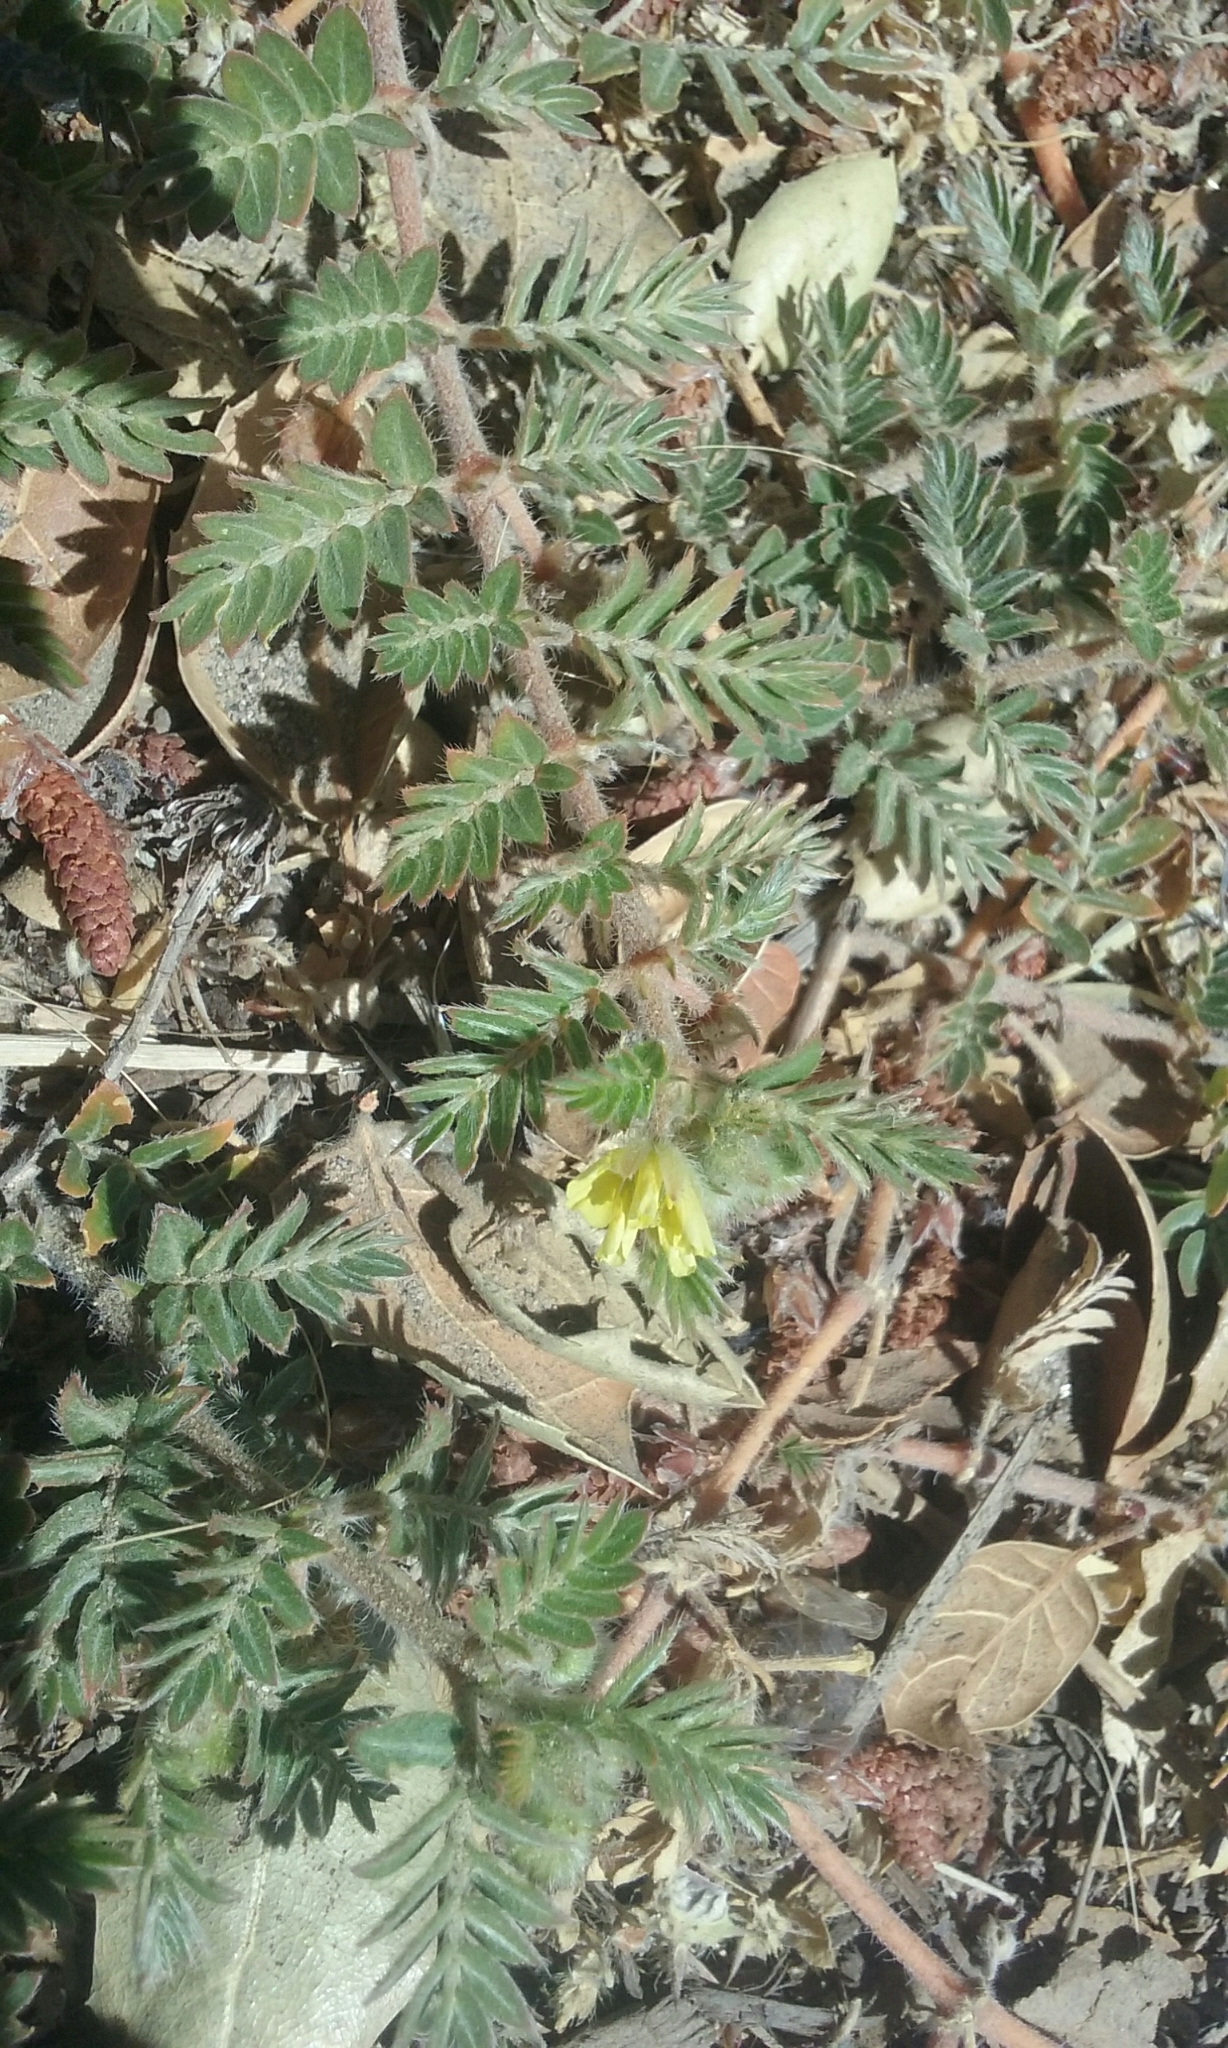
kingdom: Plantae
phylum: Tracheophyta
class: Magnoliopsida
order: Zygophyllales
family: Zygophyllaceae
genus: Tribulus
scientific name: Tribulus terrestris
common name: Puncturevine
